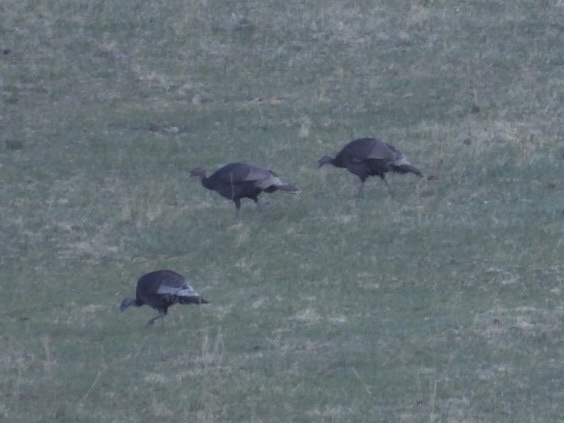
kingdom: Animalia
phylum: Chordata
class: Aves
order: Galliformes
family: Phasianidae
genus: Meleagris
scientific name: Meleagris gallopavo
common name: Wild turkey
